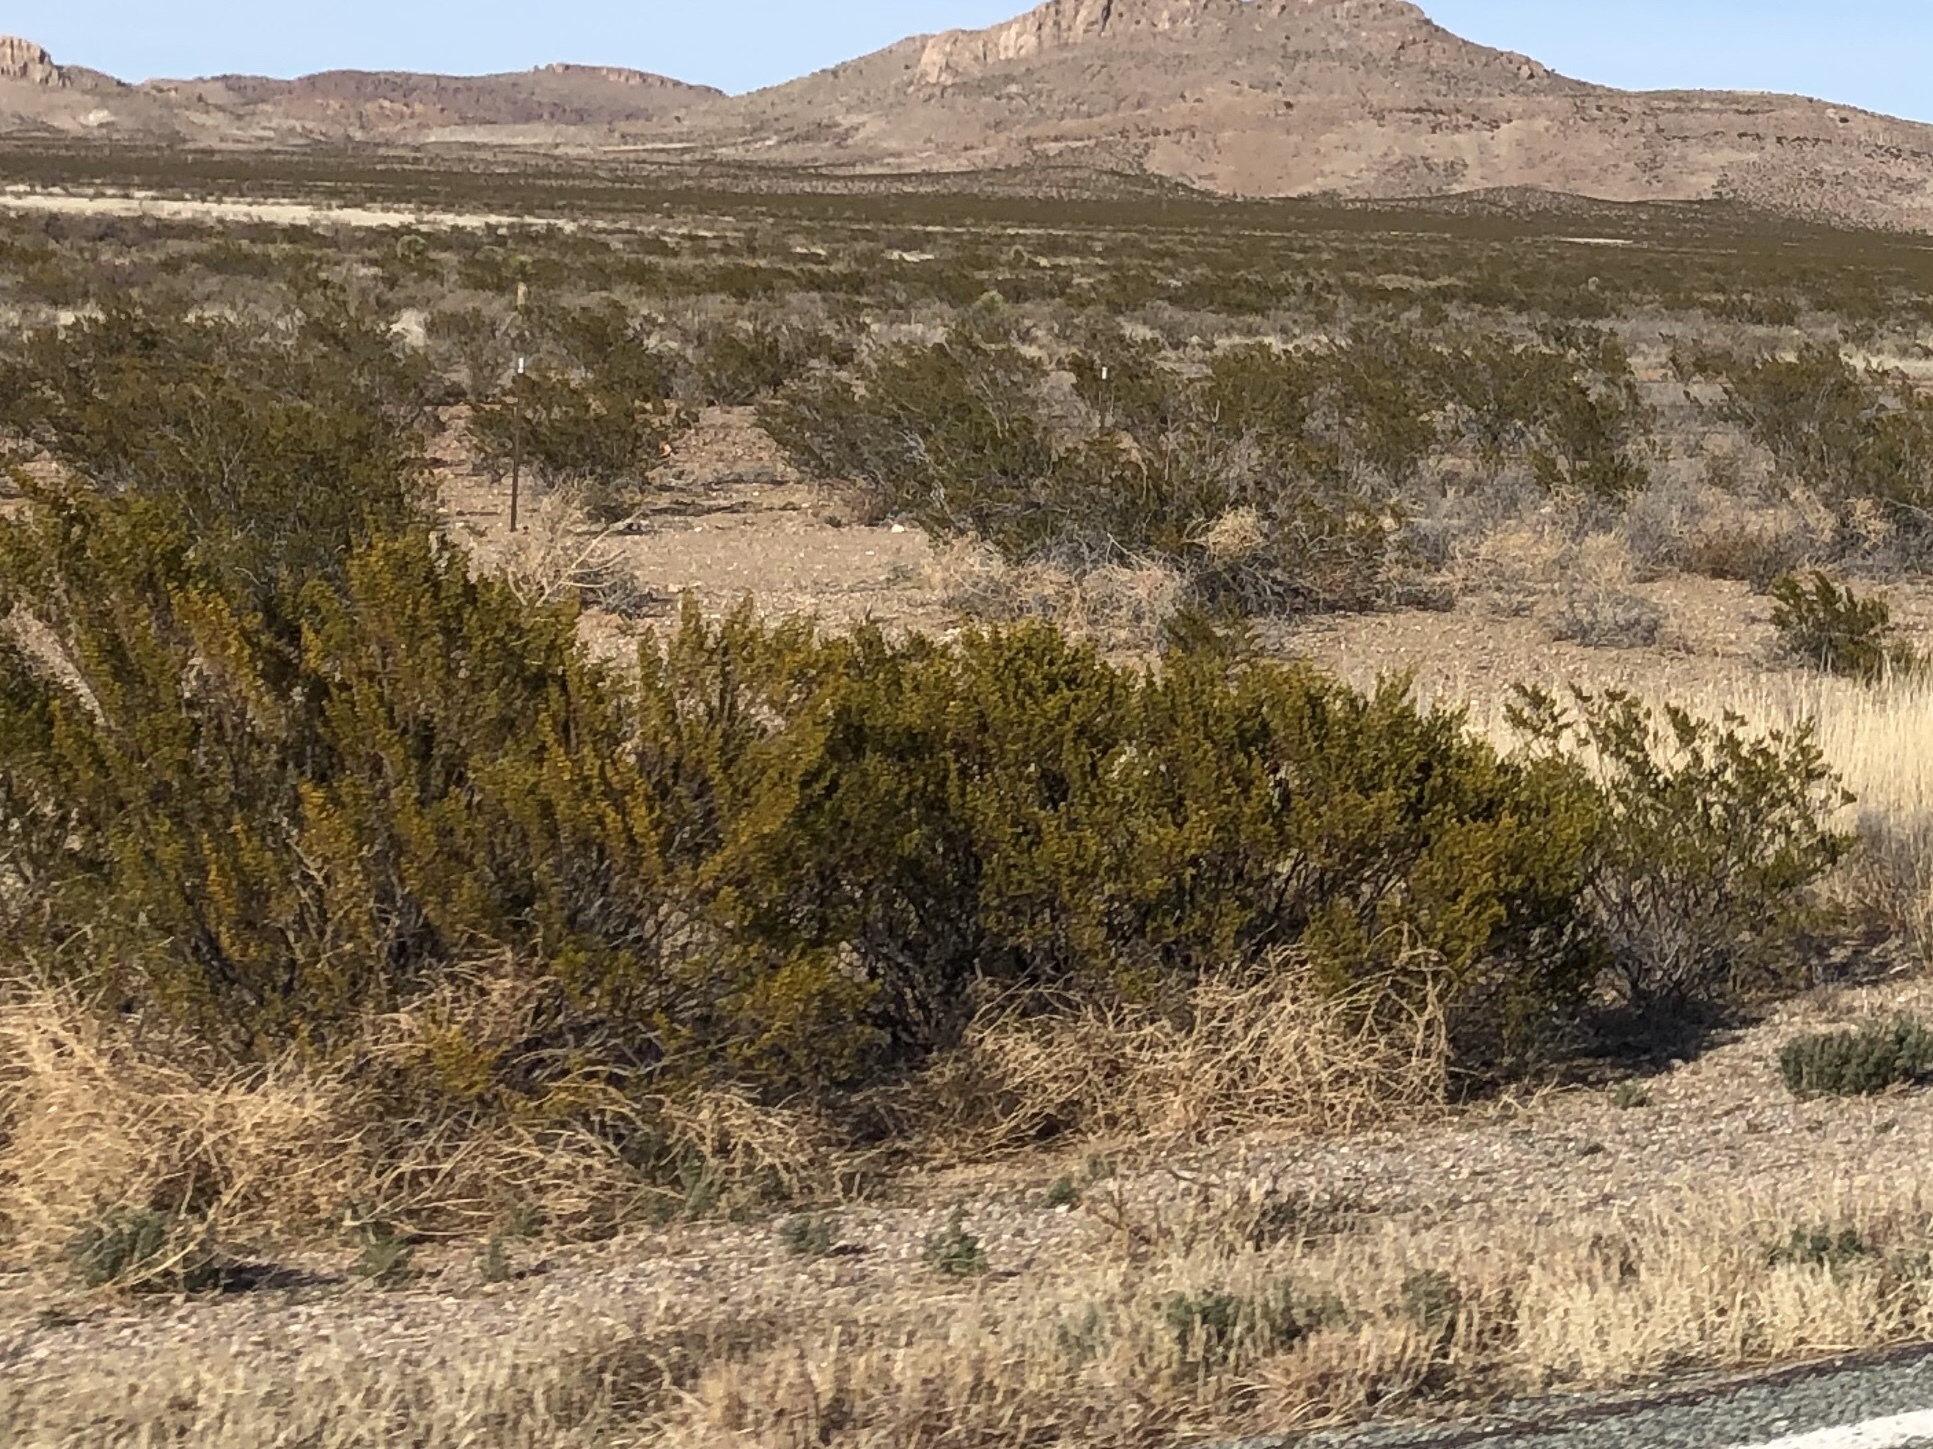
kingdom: Plantae
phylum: Tracheophyta
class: Magnoliopsida
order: Zygophyllales
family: Zygophyllaceae
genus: Larrea
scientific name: Larrea tridentata
